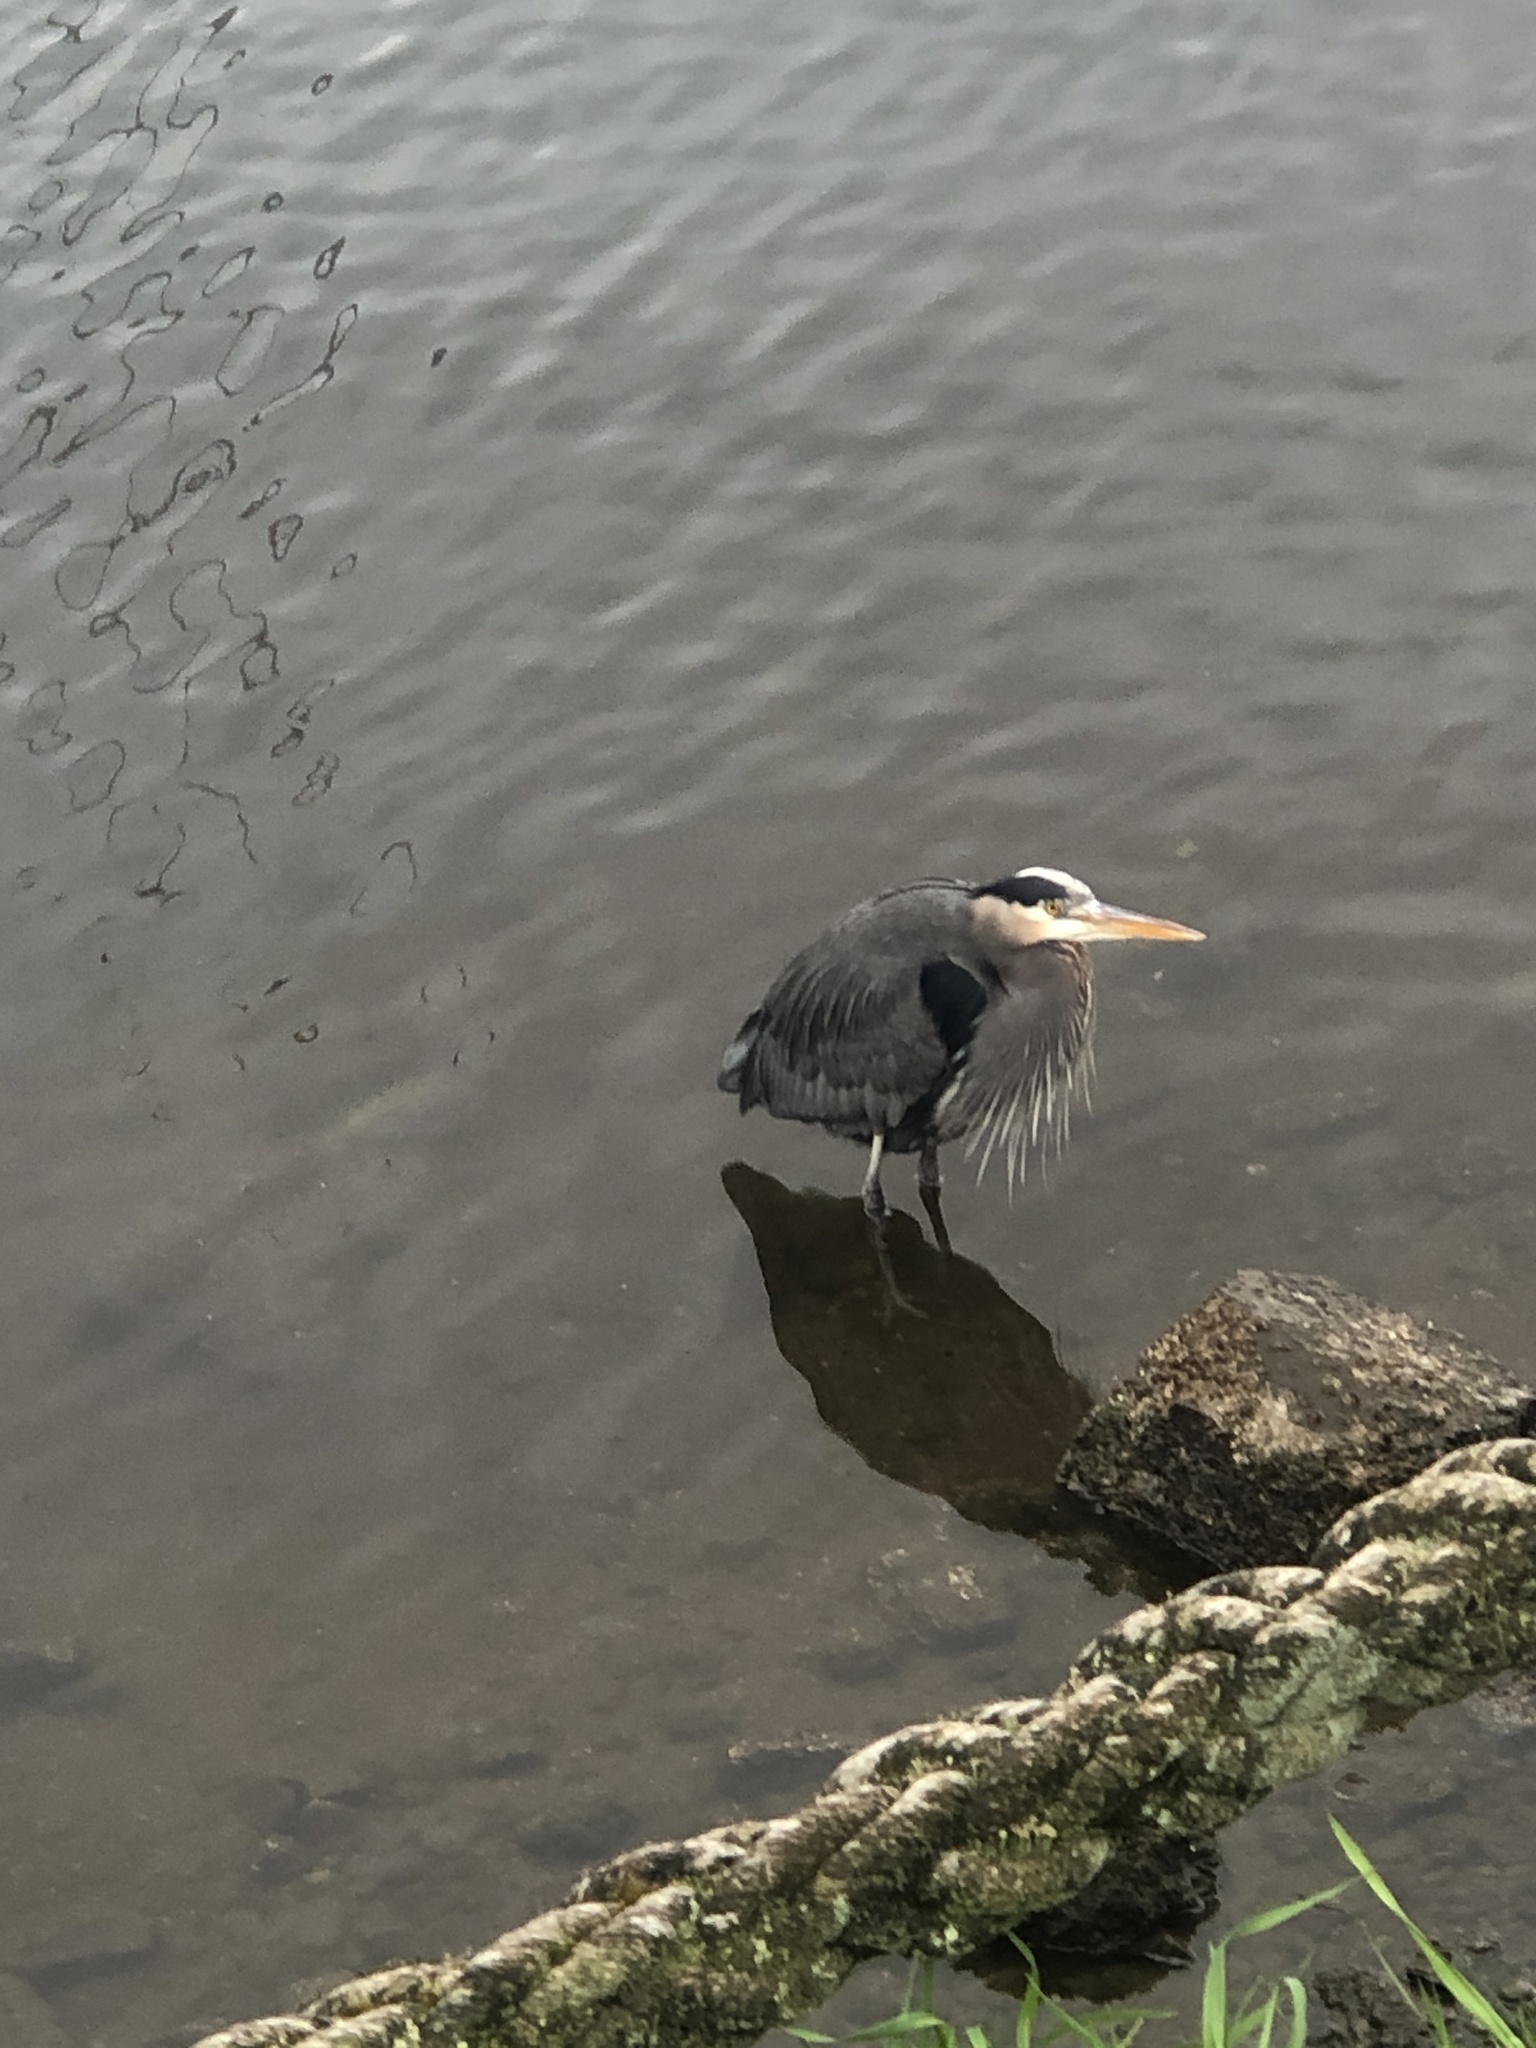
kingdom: Animalia
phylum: Chordata
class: Aves
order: Pelecaniformes
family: Ardeidae
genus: Ardea
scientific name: Ardea herodias
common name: Great blue heron
